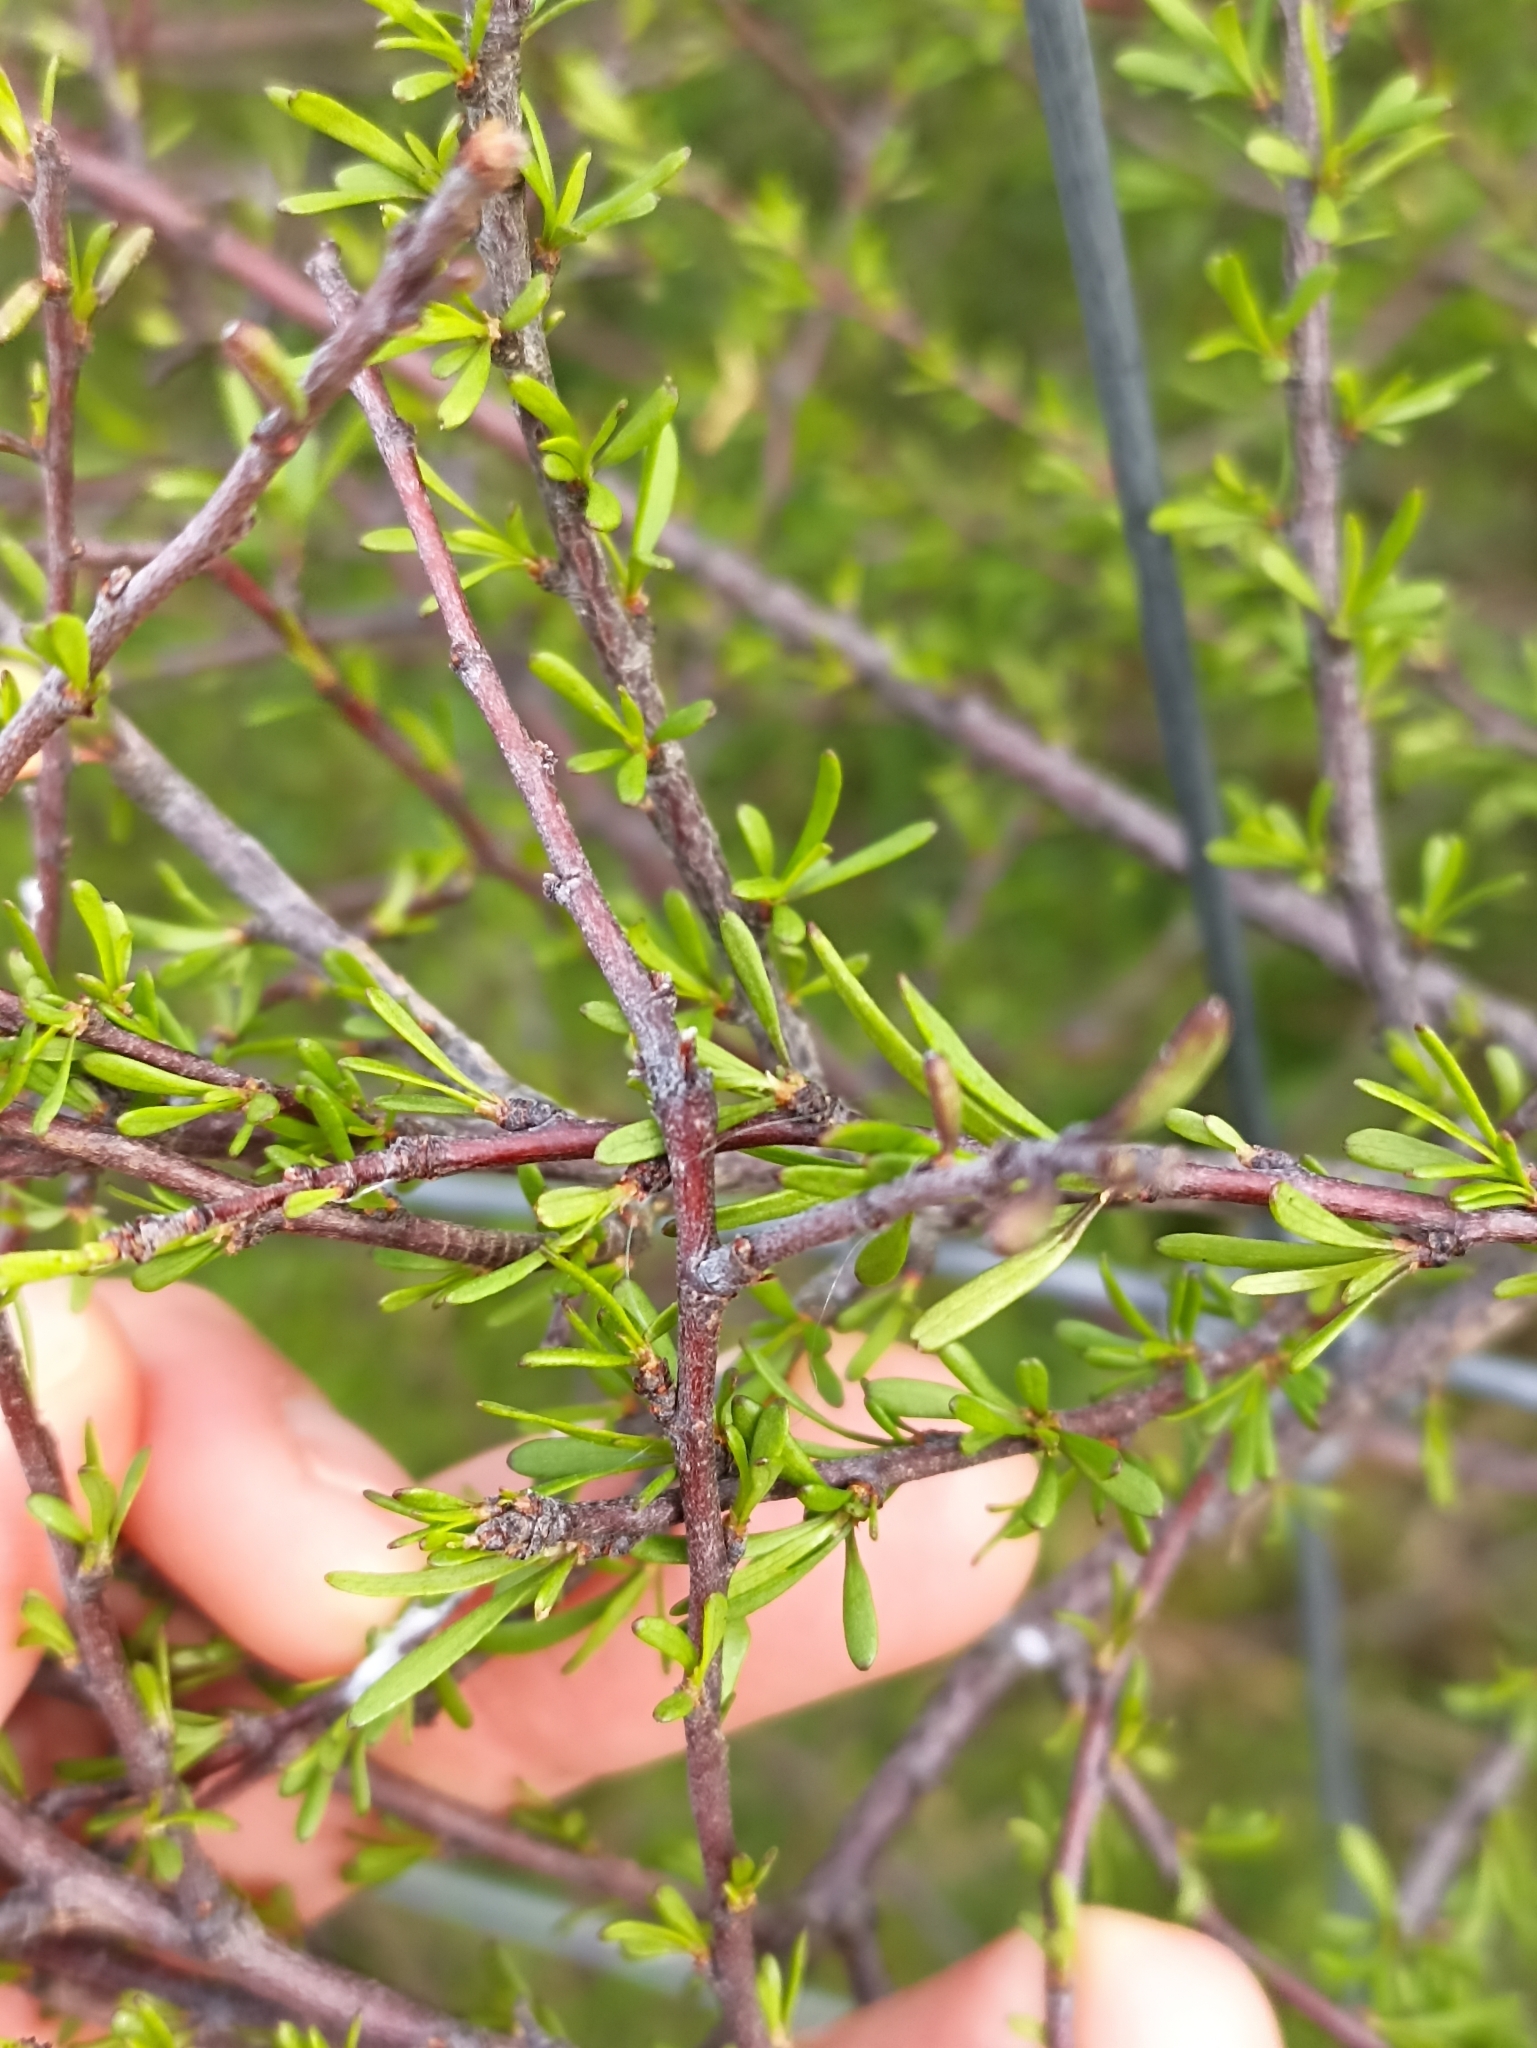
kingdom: Plantae
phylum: Tracheophyta
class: Magnoliopsida
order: Malvales
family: Malvaceae
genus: Plagianthus
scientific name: Plagianthus divaricatus
